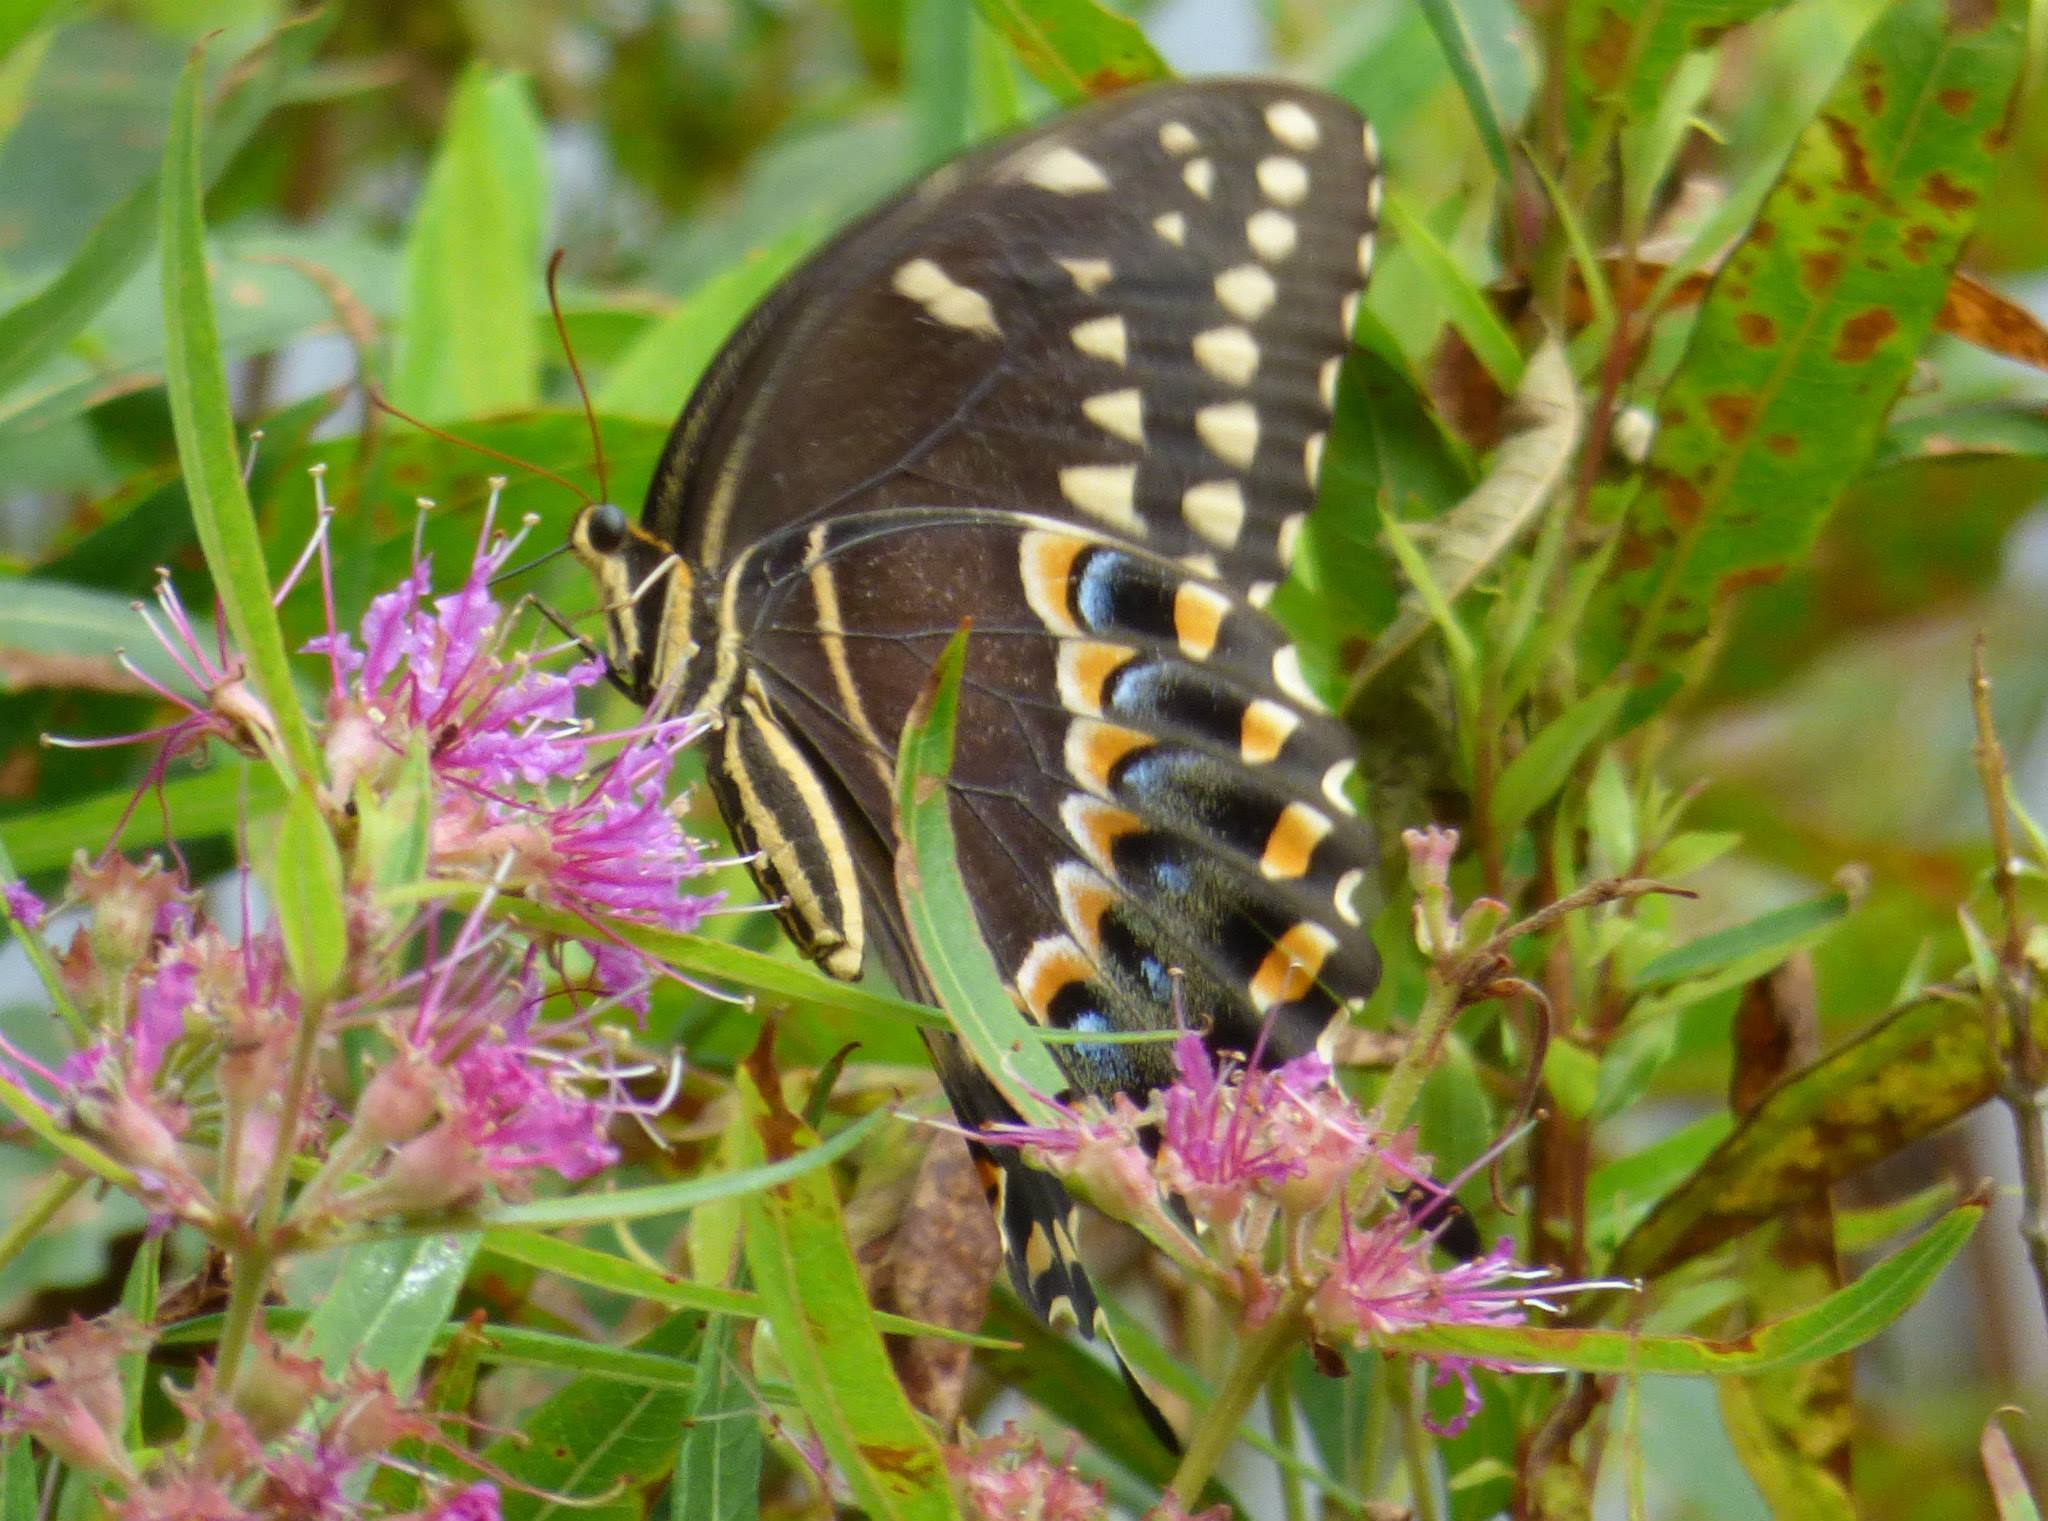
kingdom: Animalia
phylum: Arthropoda
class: Insecta
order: Lepidoptera
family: Papilionidae
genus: Papilio
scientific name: Papilio palamedes
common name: Palamedes swallowtail
